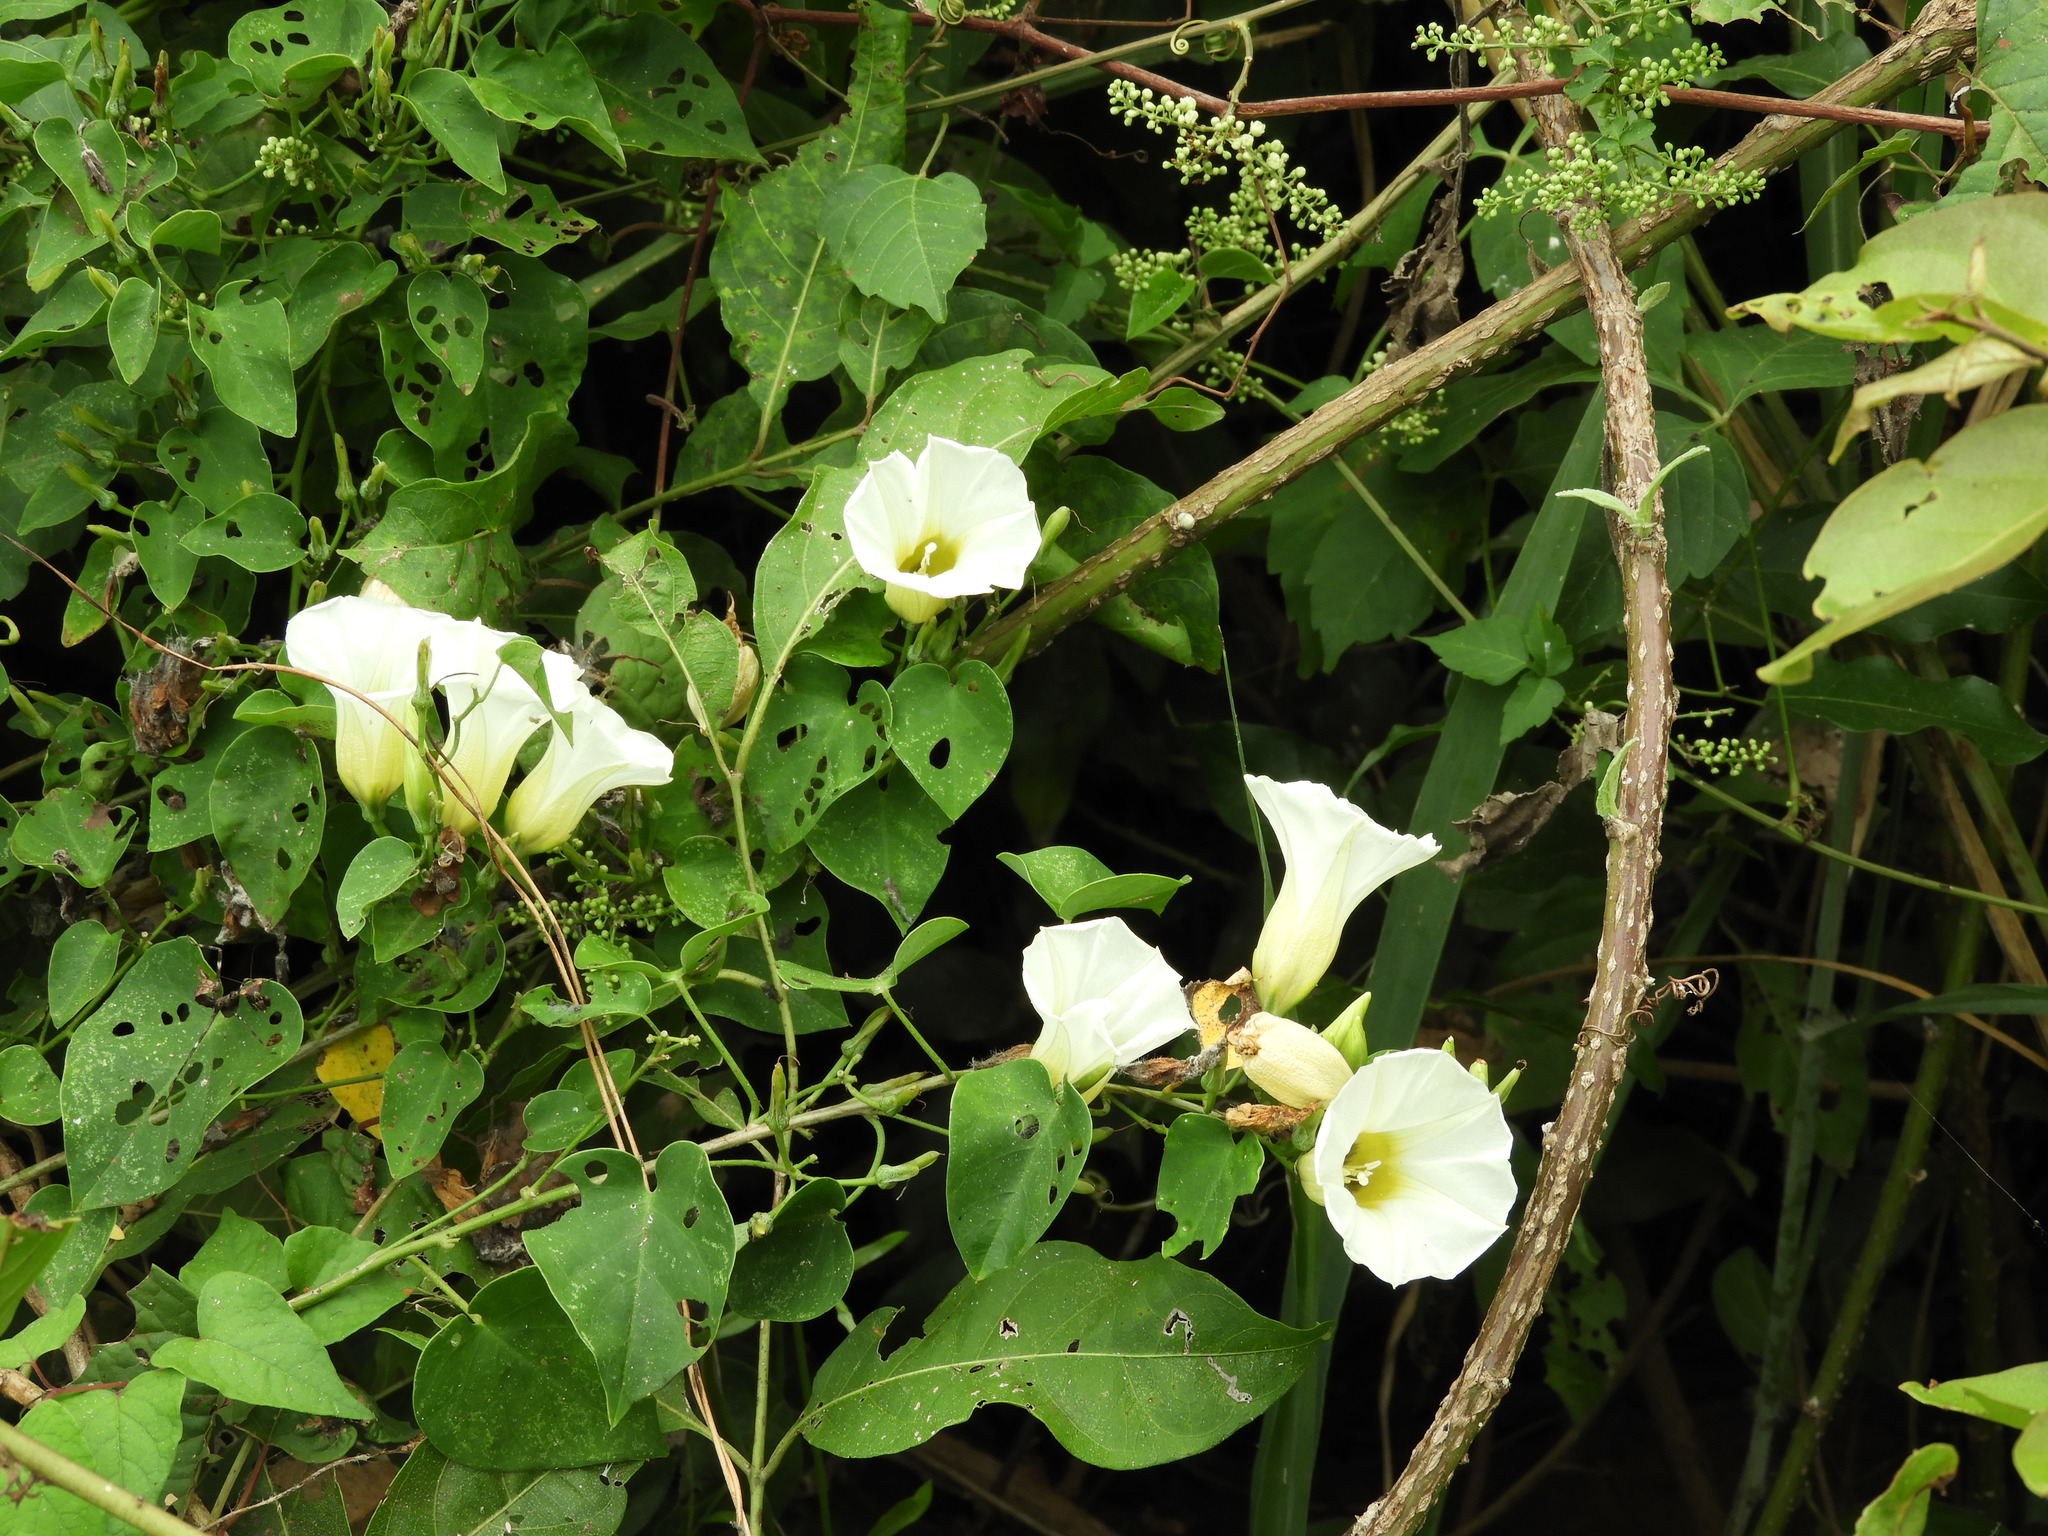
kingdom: Plantae
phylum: Tracheophyta
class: Magnoliopsida
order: Solanales
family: Convolvulaceae
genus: Ipomoea
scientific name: Ipomoea corymbosa
